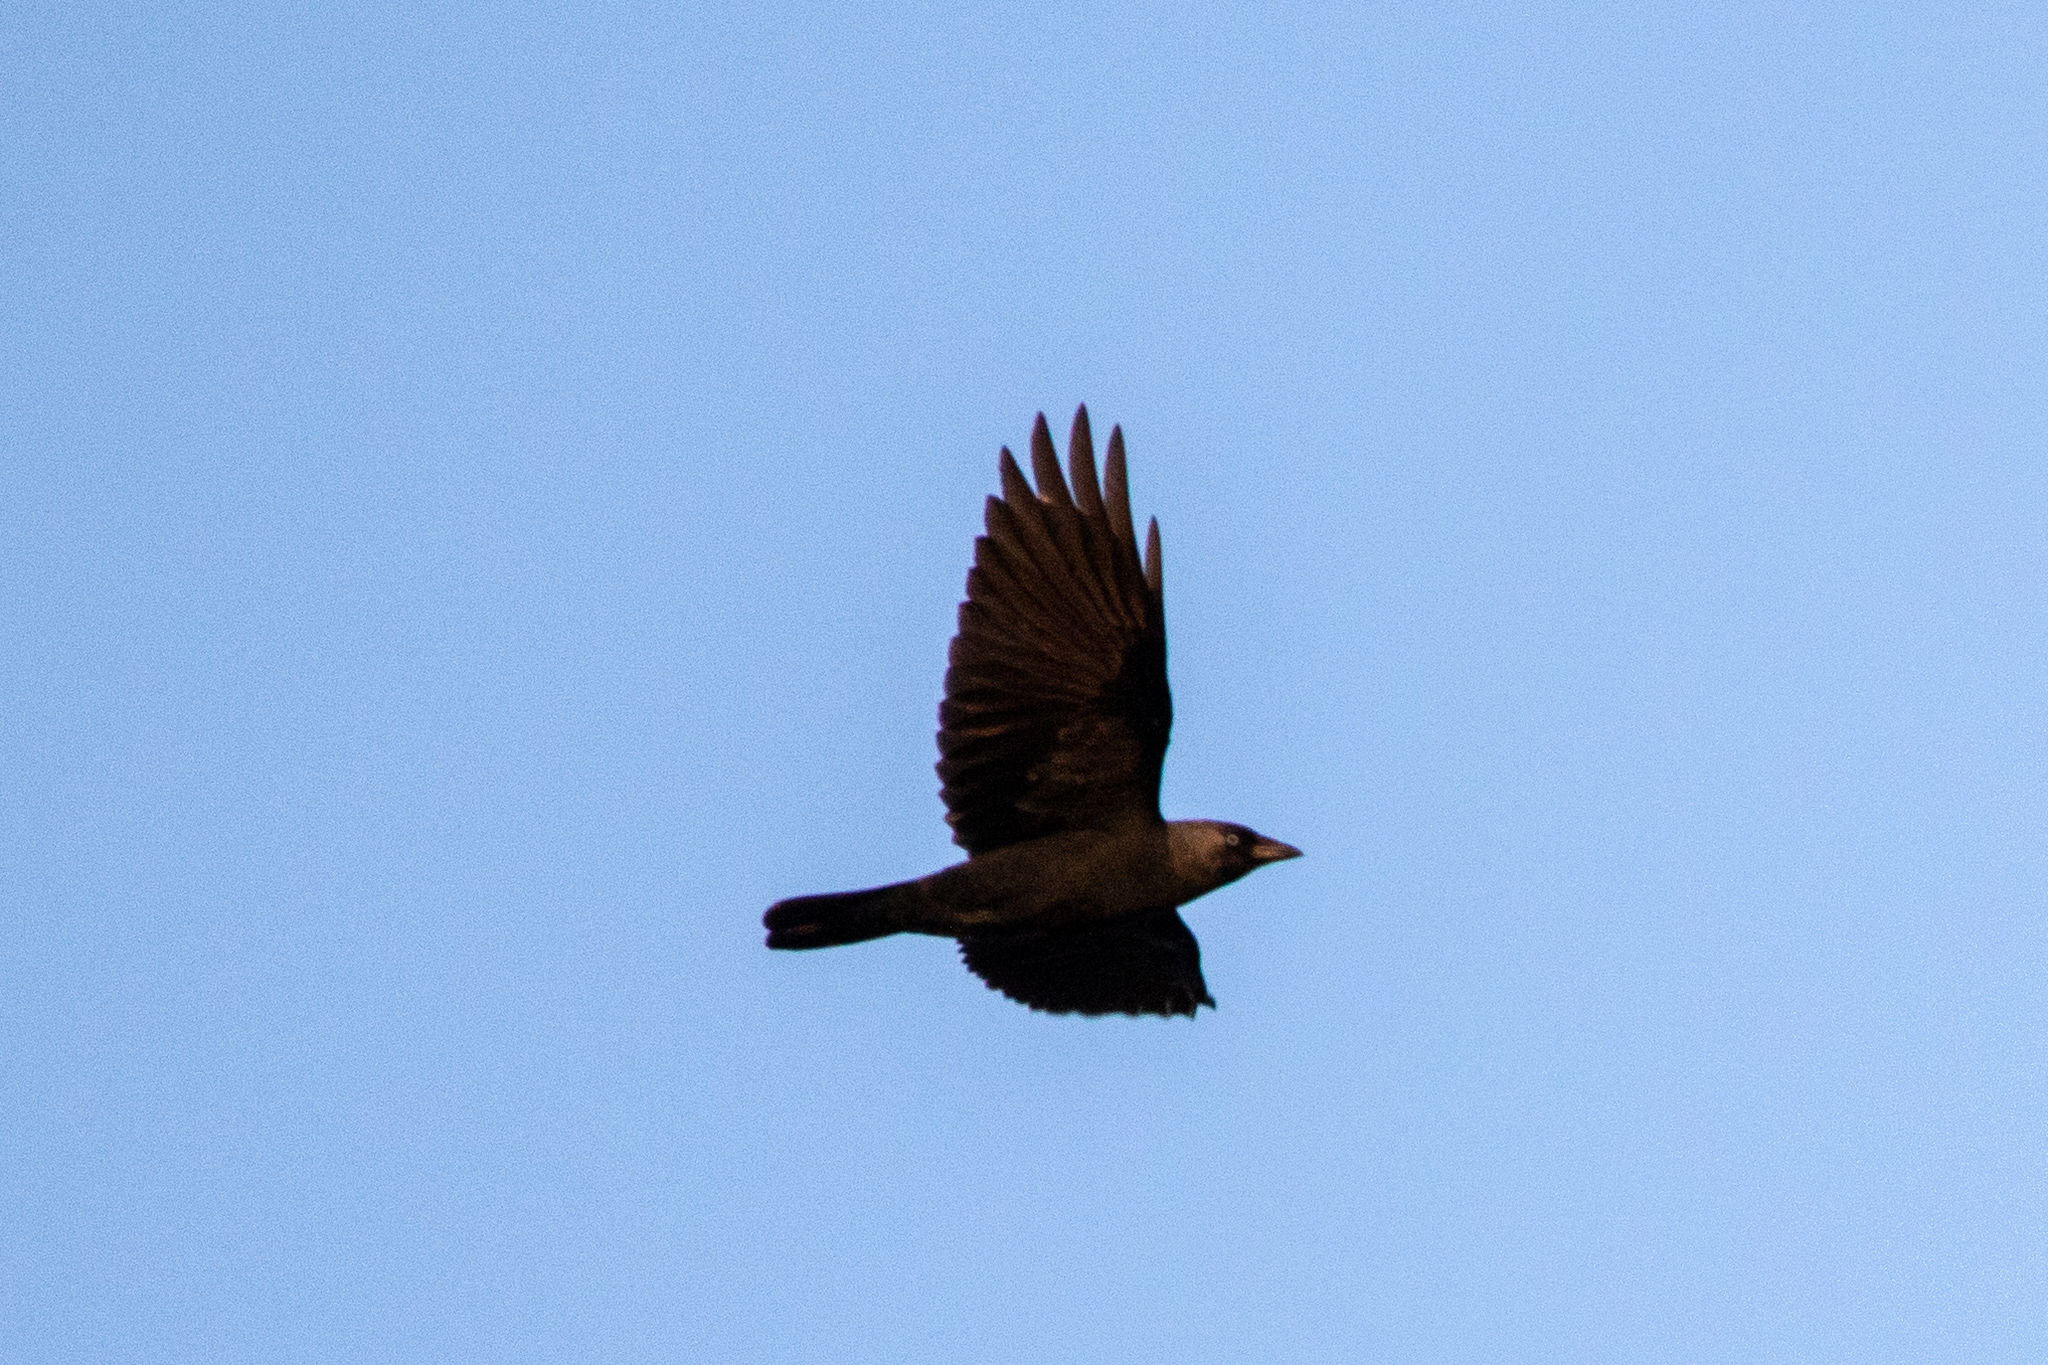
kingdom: Animalia
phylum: Chordata
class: Aves
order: Passeriformes
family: Corvidae
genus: Coloeus
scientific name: Coloeus monedula
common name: Western jackdaw
